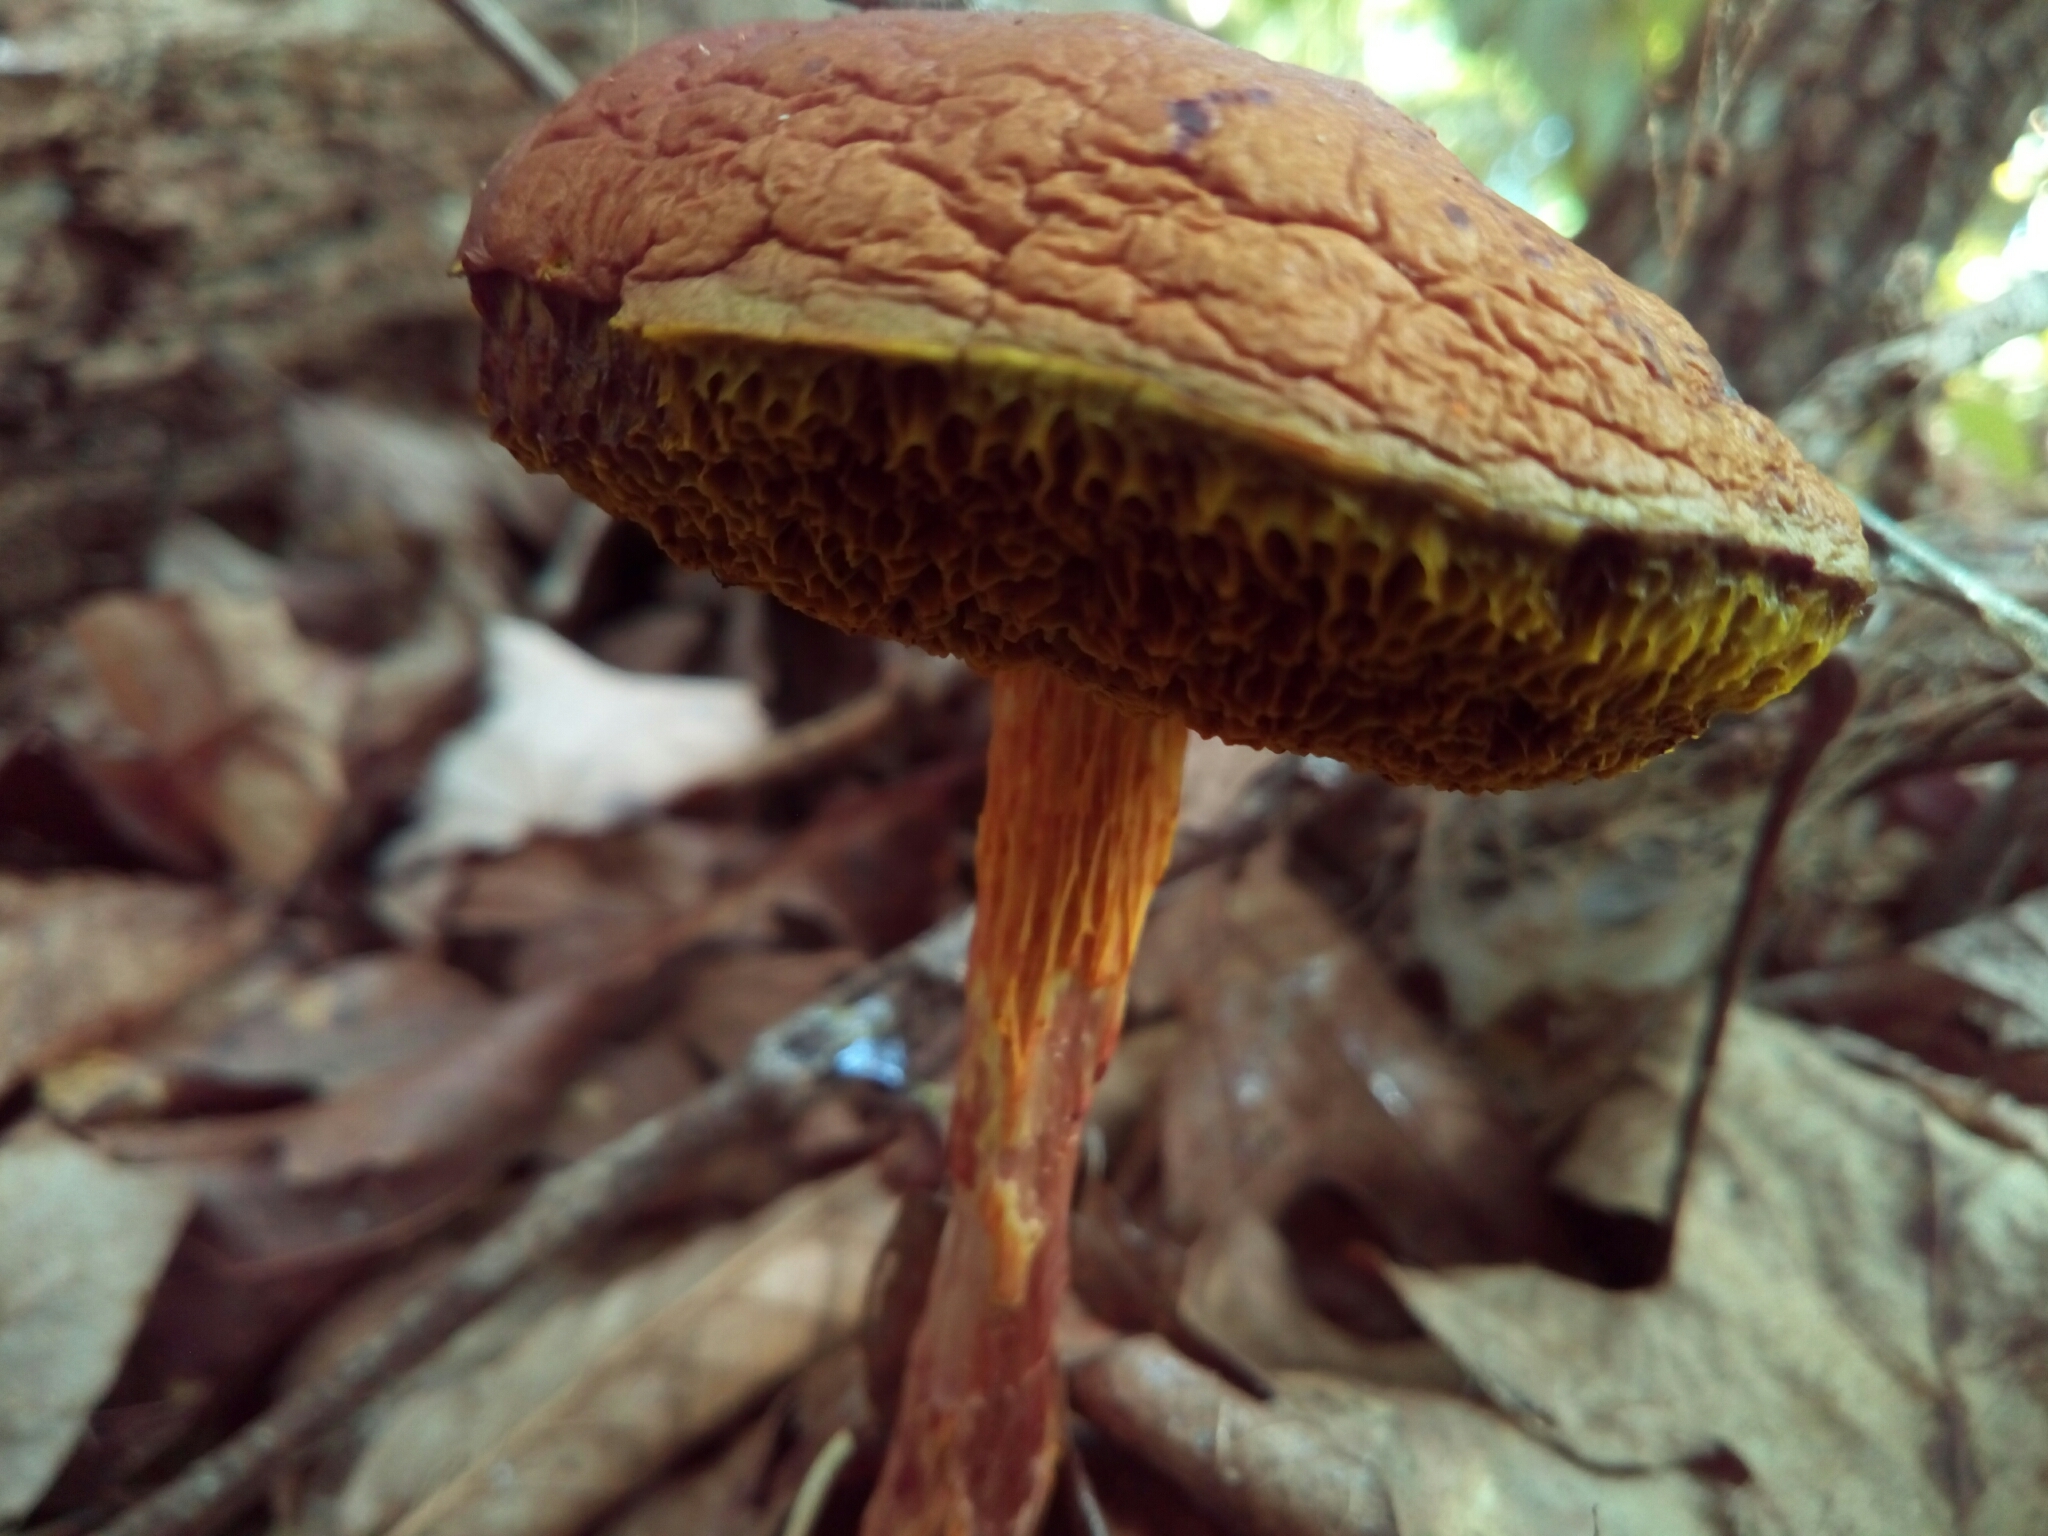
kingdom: Fungi
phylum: Basidiomycota
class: Agaricomycetes
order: Boletales
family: Boletaceae
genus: Aureoboletus
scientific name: Aureoboletus betula
